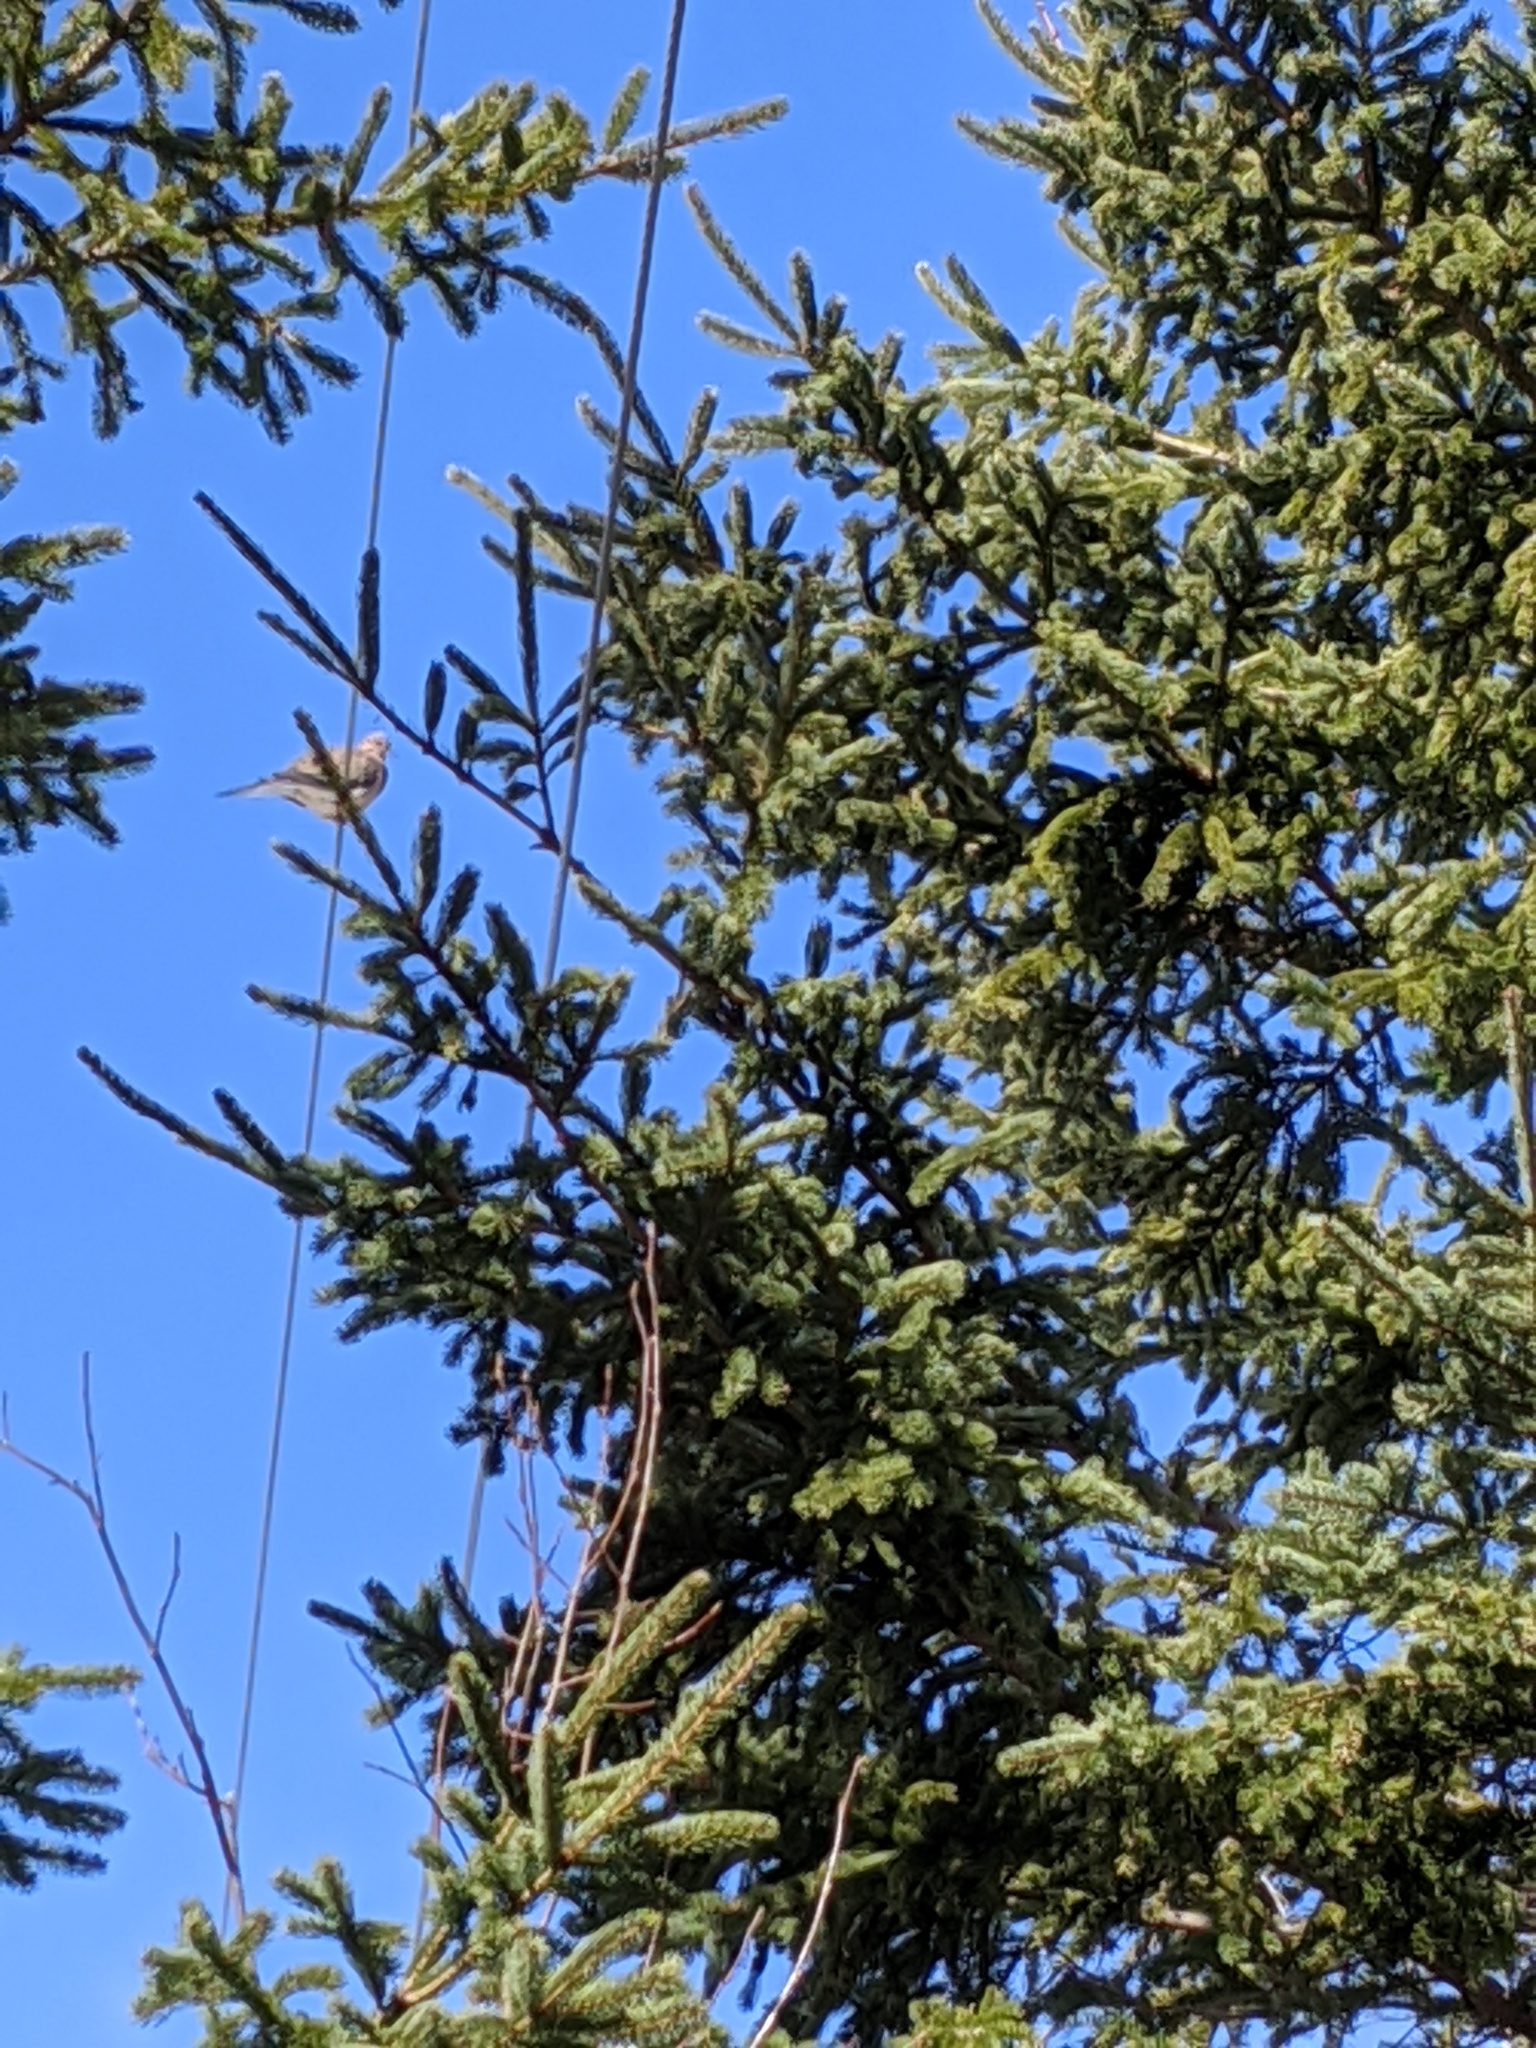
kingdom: Animalia
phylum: Chordata
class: Aves
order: Columbiformes
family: Columbidae
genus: Zenaida
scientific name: Zenaida macroura
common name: Mourning dove
